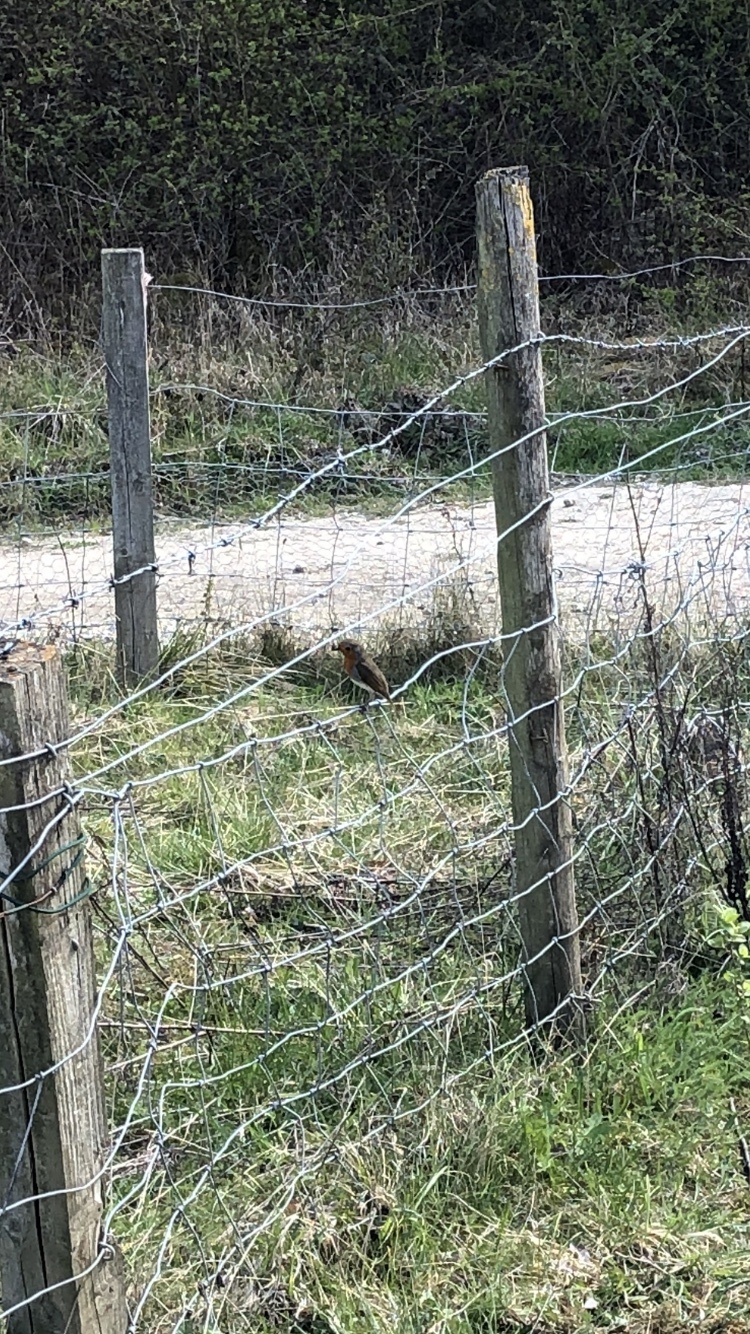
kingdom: Animalia
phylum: Chordata
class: Aves
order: Passeriformes
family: Muscicapidae
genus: Erithacus
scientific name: Erithacus rubecula
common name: European robin
